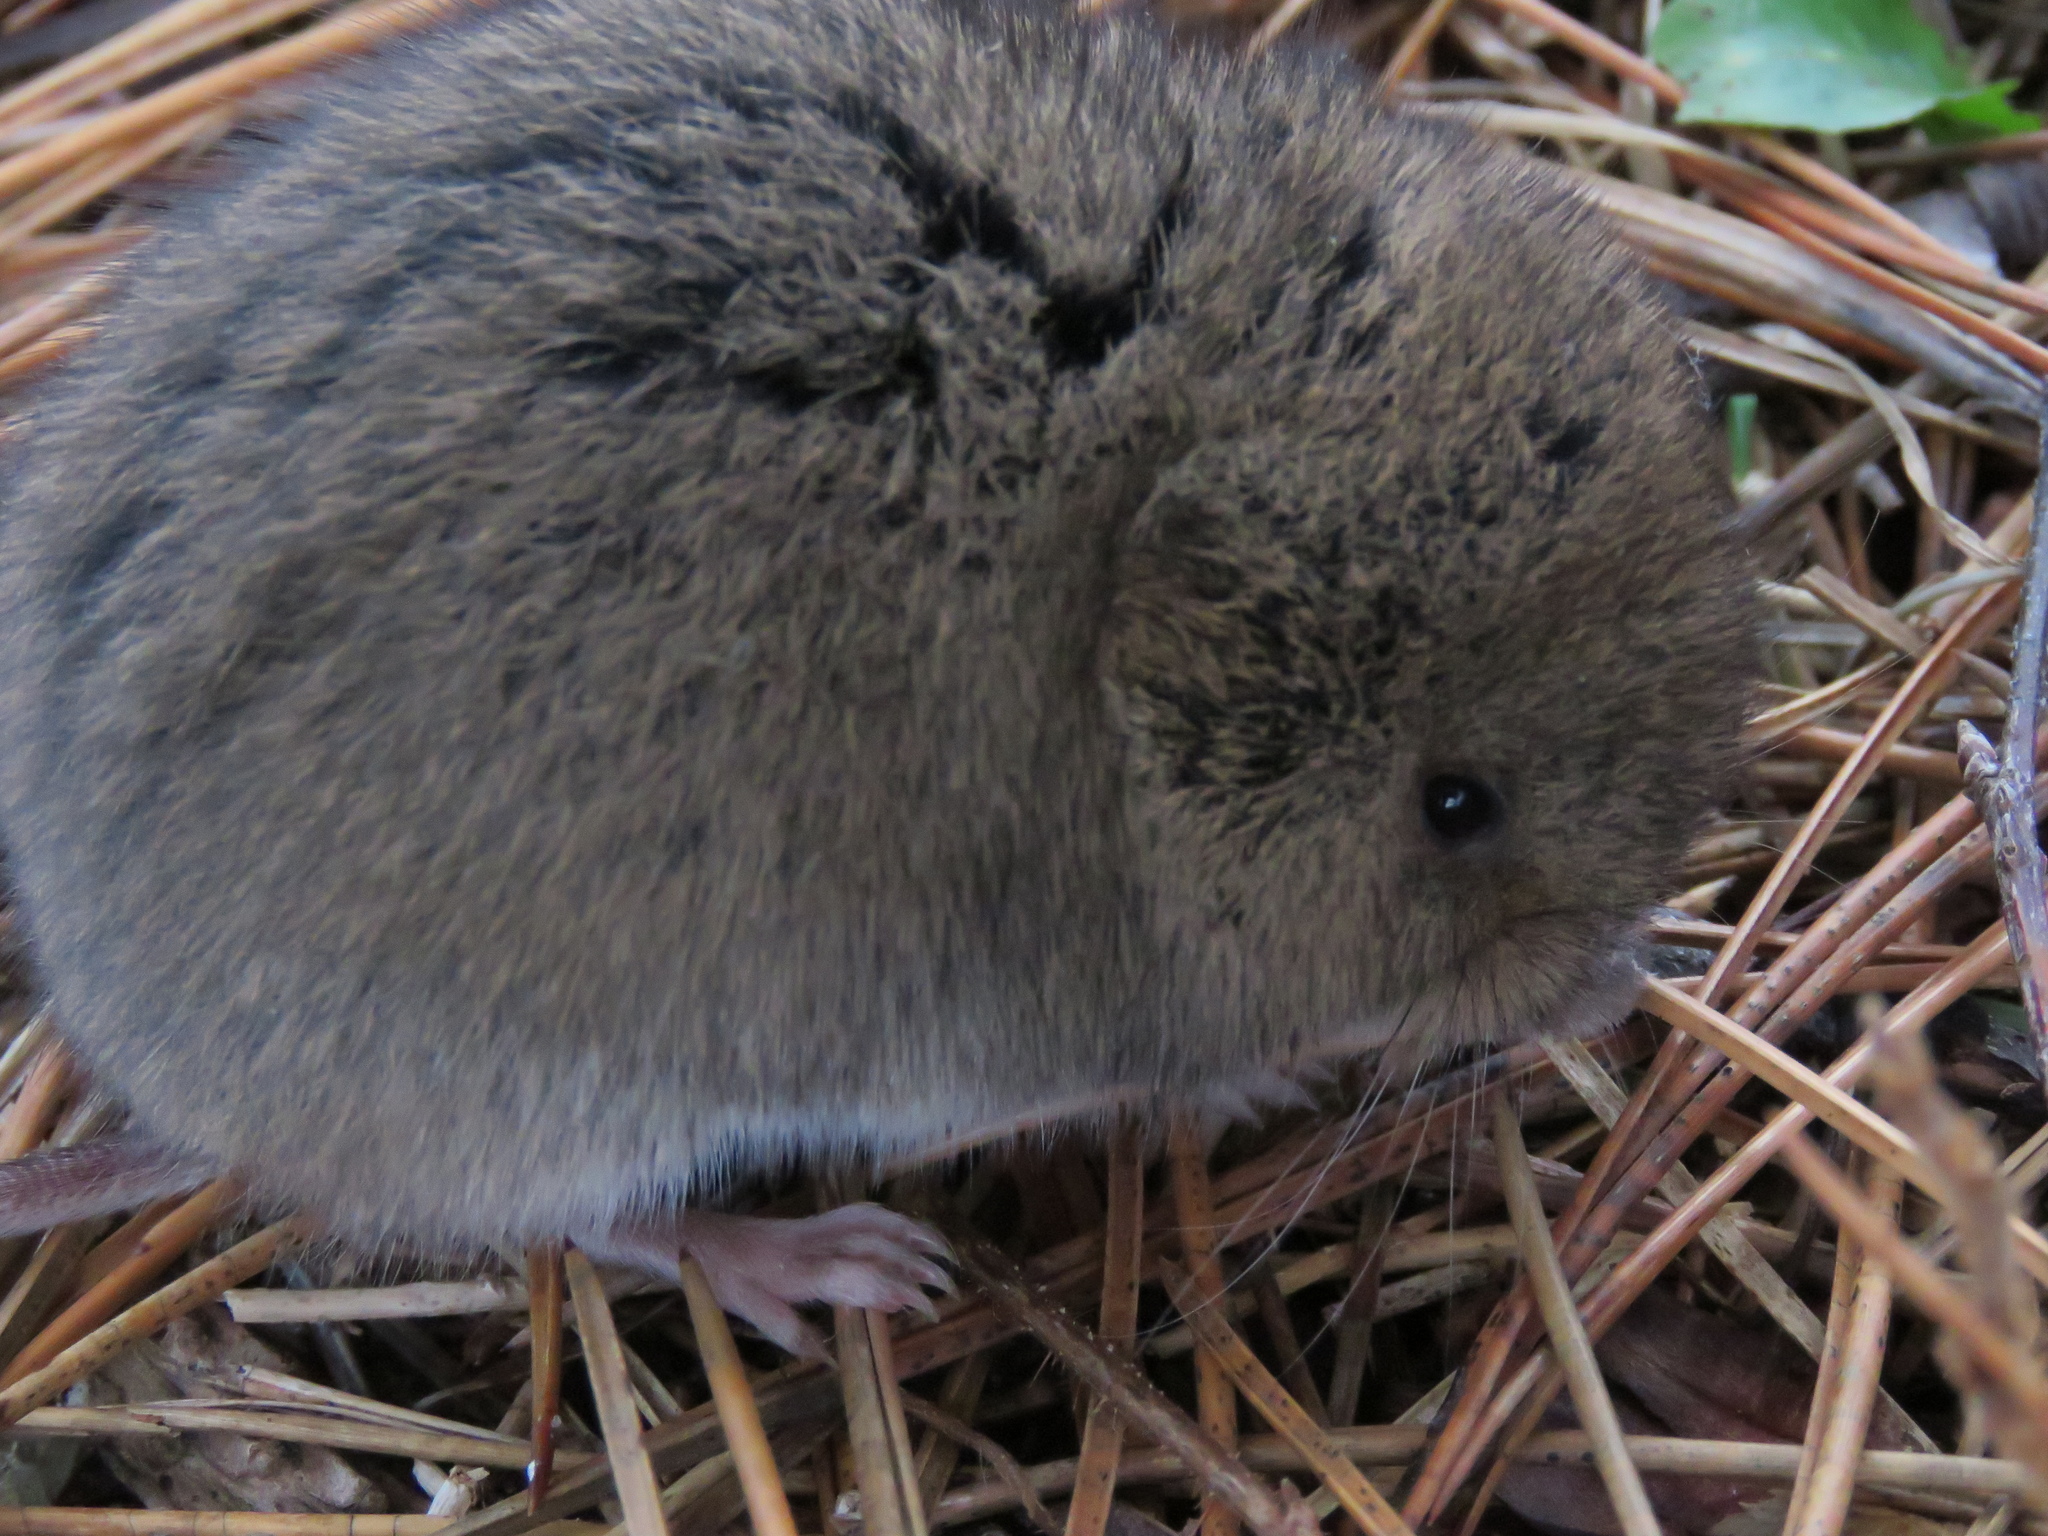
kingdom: Animalia
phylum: Chordata
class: Mammalia
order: Rodentia
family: Cricetidae
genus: Microtus
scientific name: Microtus pennsylvanicus
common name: Meadow vole
